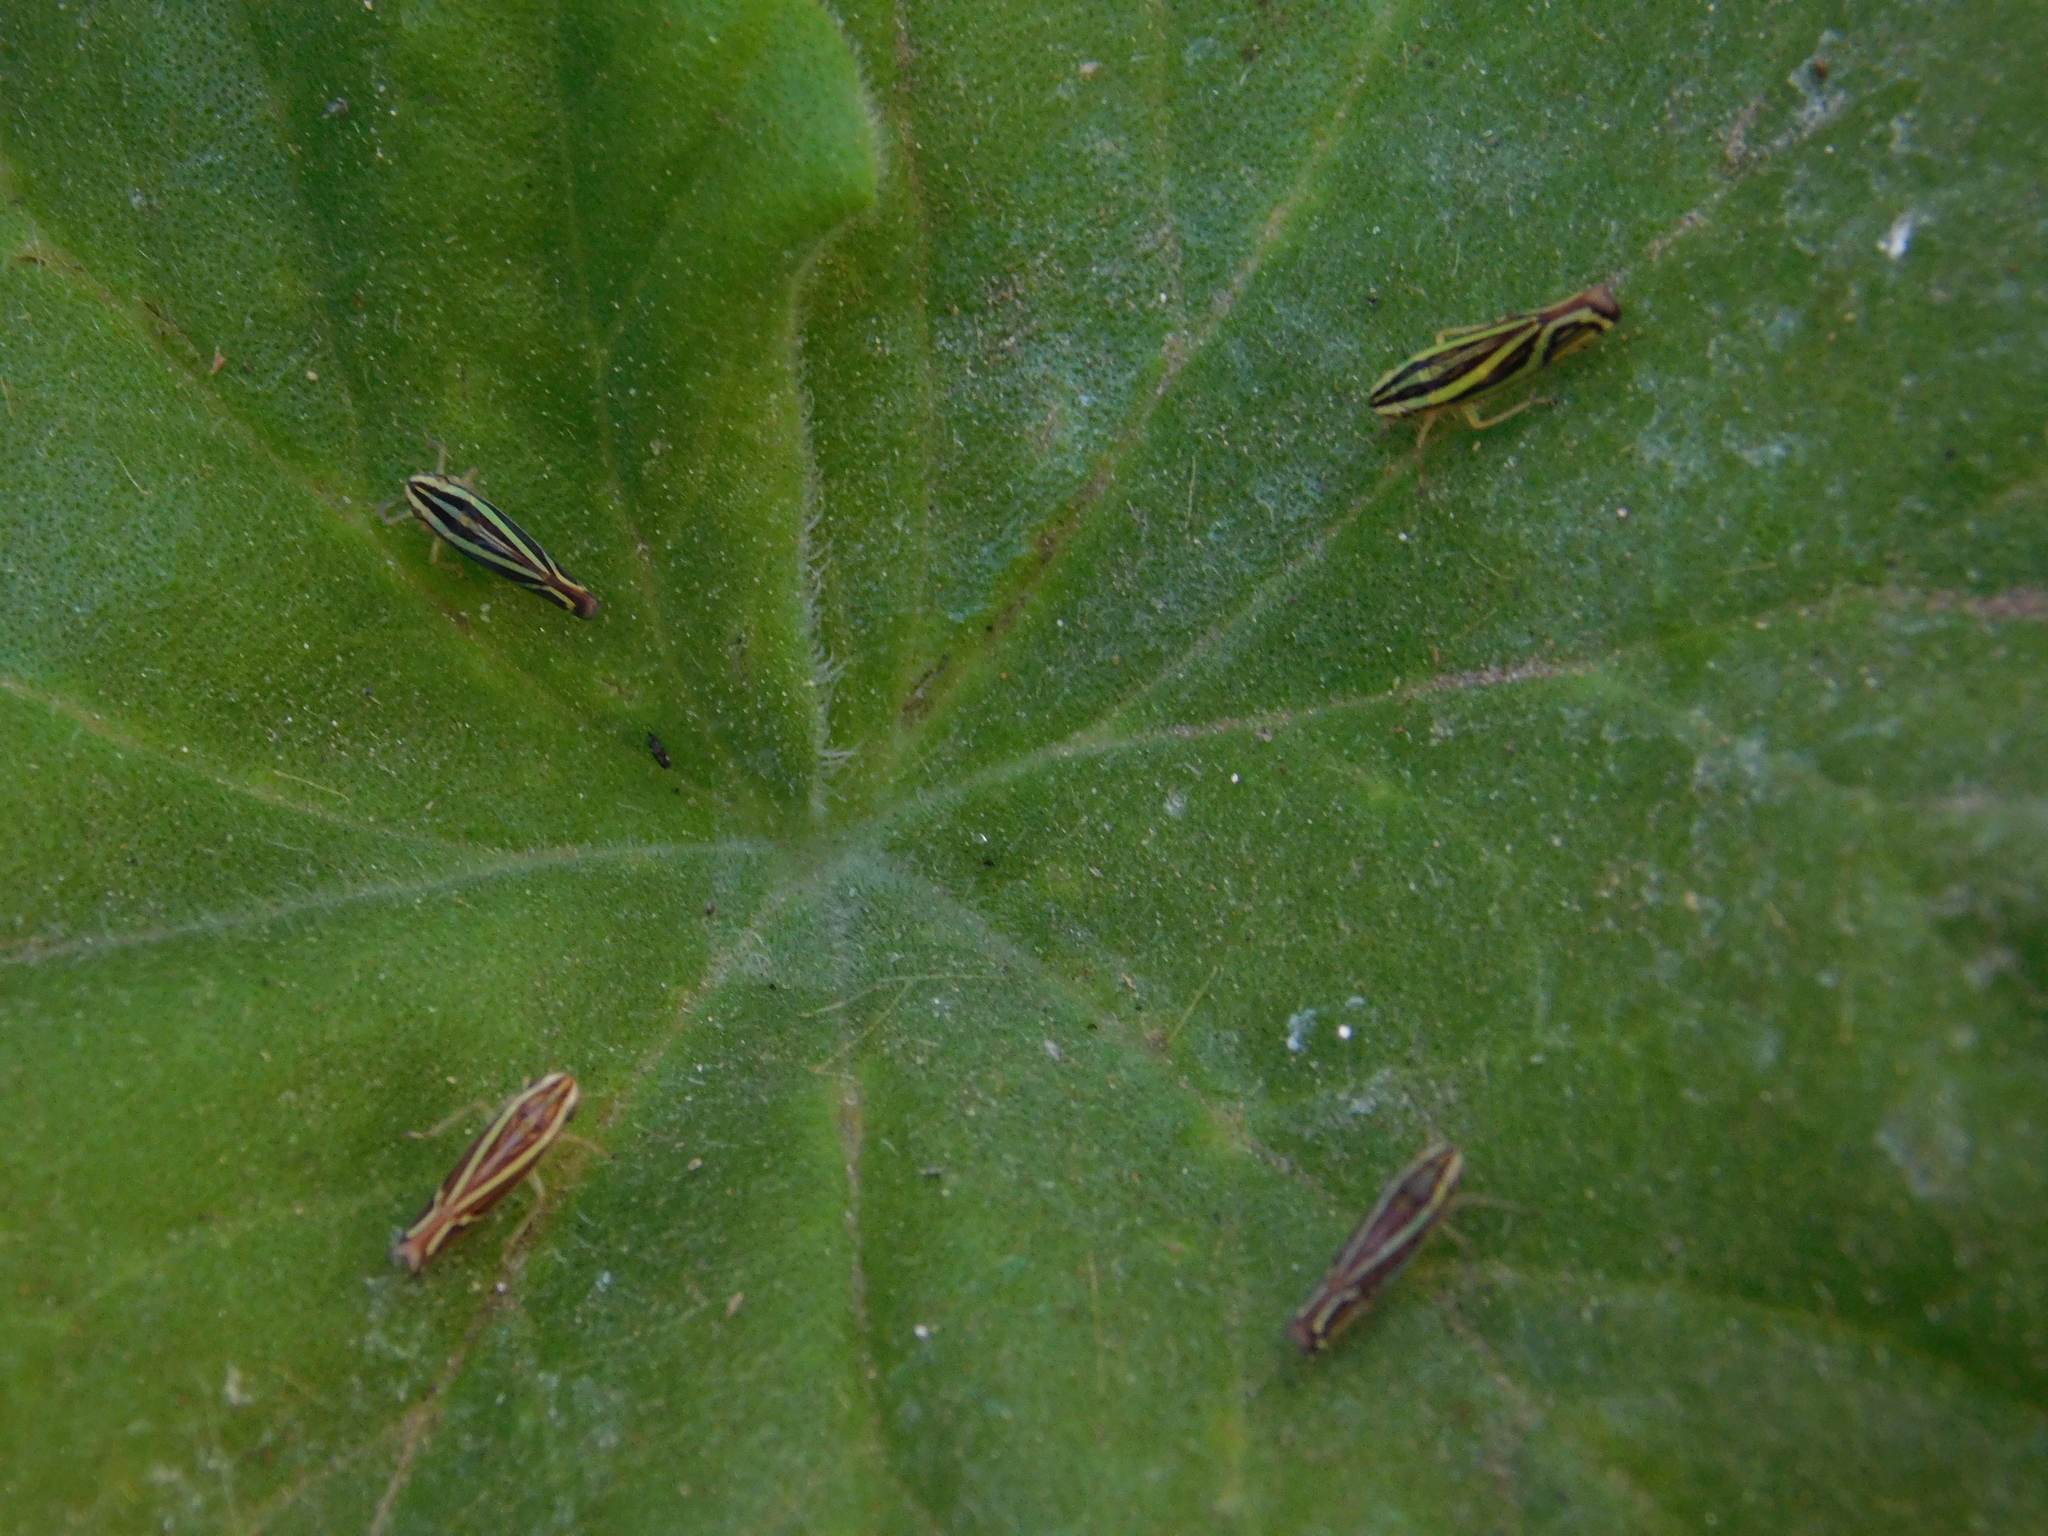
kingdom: Animalia
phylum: Arthropoda
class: Insecta
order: Hemiptera
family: Cicadellidae
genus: Sibovia
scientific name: Sibovia sagata
